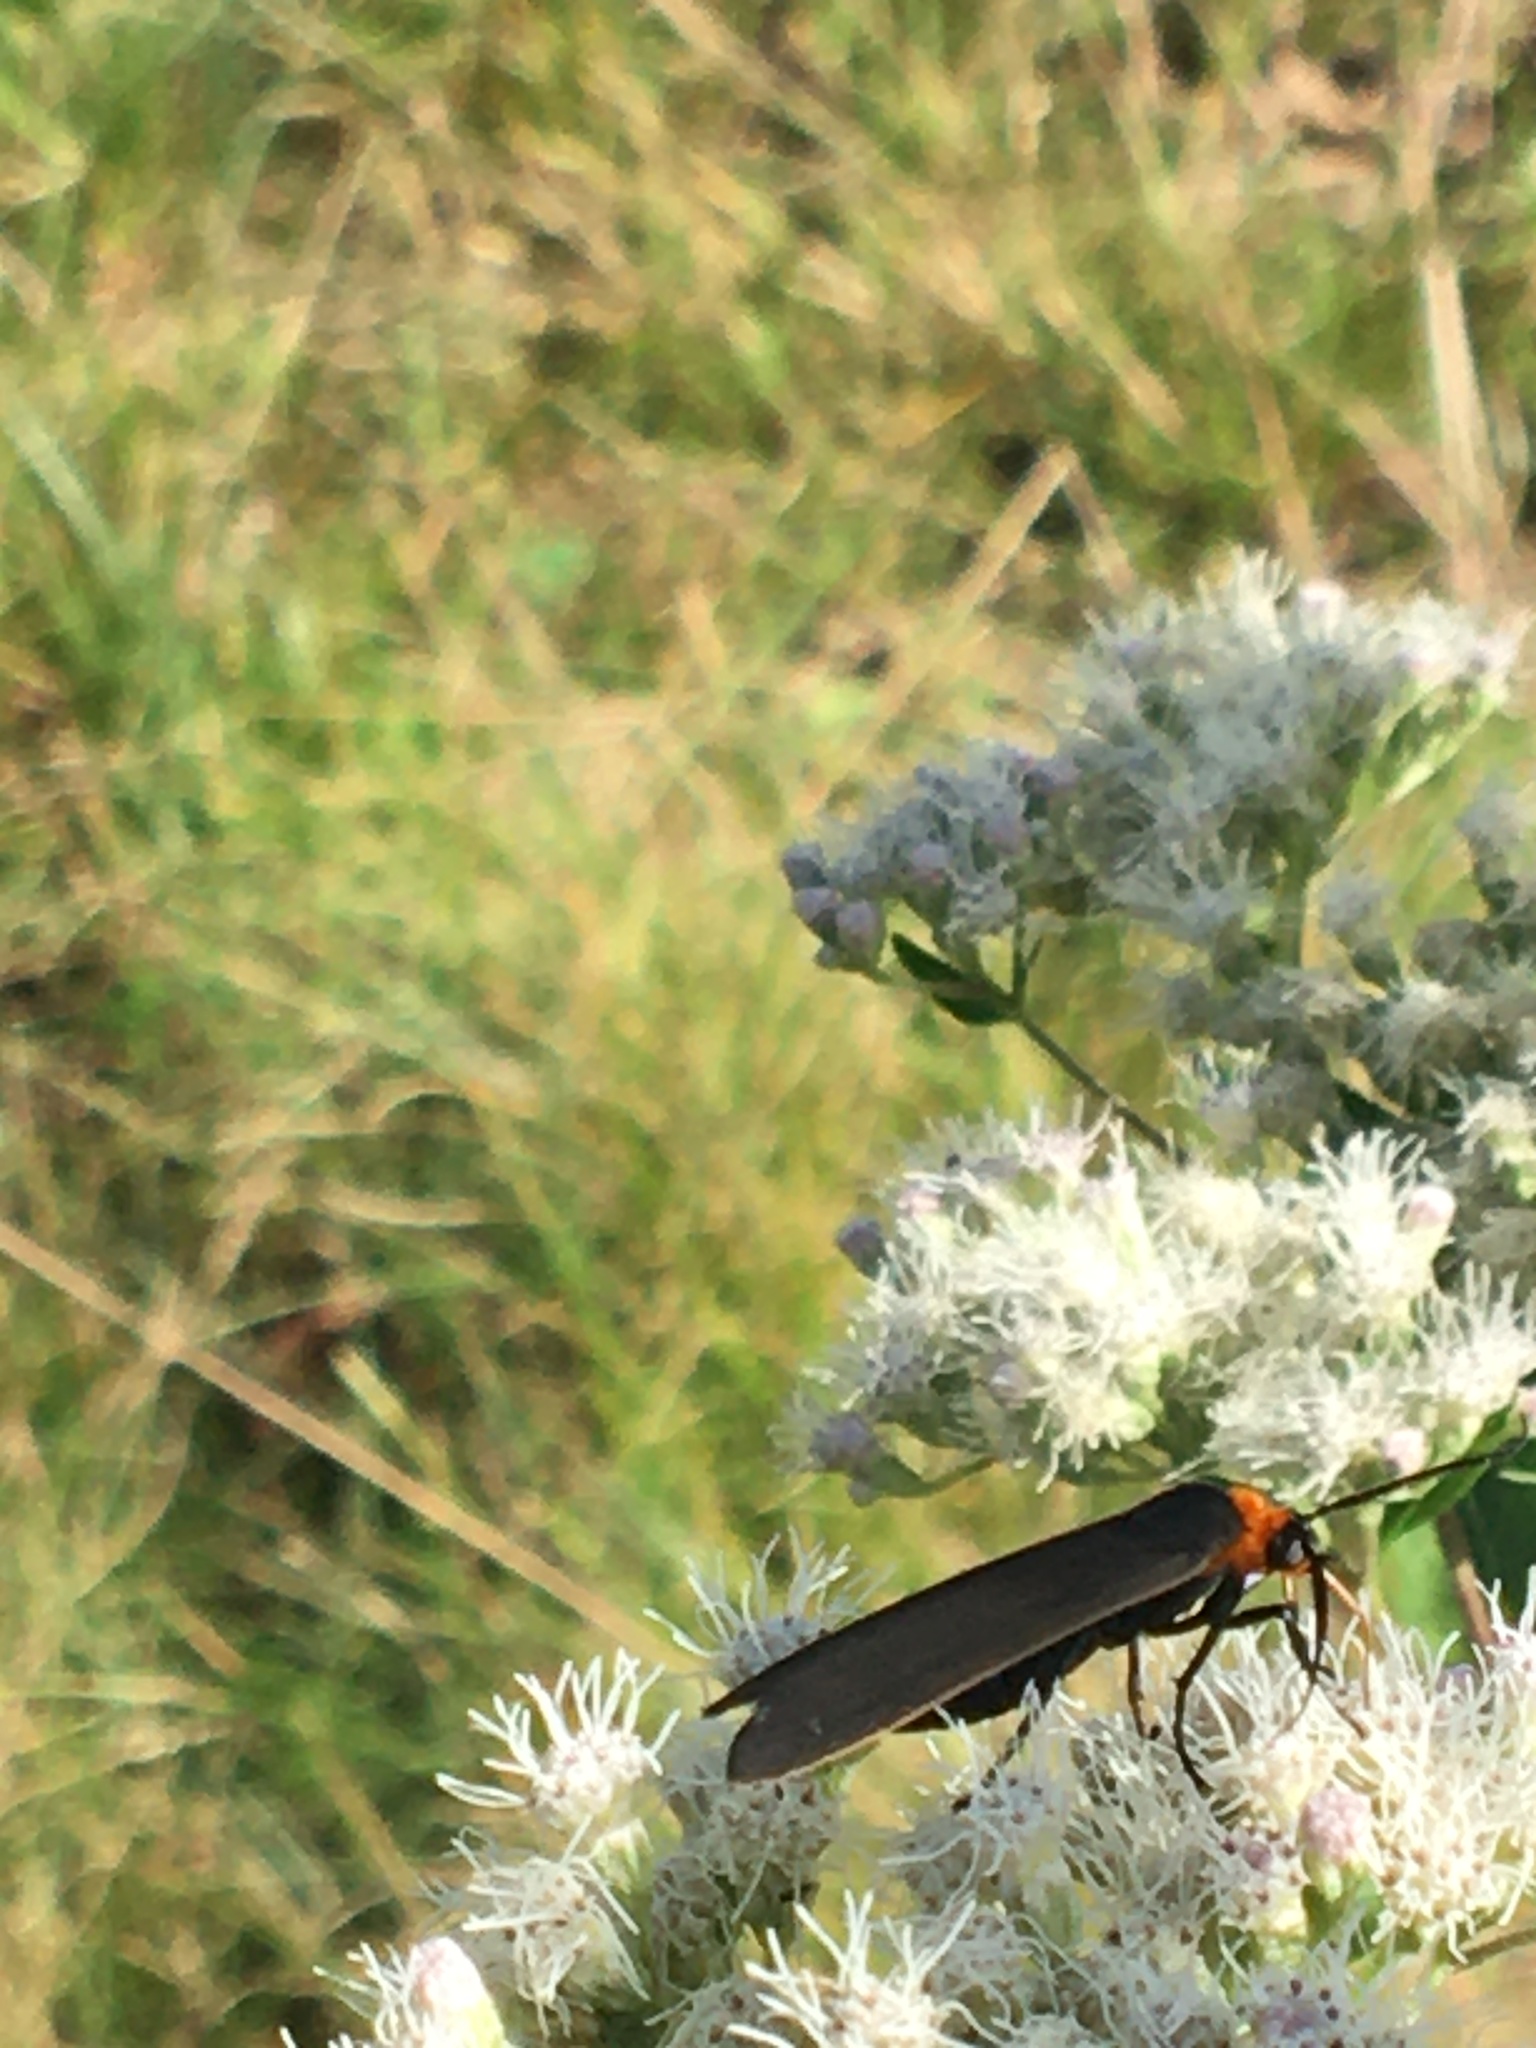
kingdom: Animalia
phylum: Arthropoda
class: Insecta
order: Lepidoptera
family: Erebidae
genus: Cisseps
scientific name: Cisseps fulvicollis
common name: Yellow-collared scape moth
